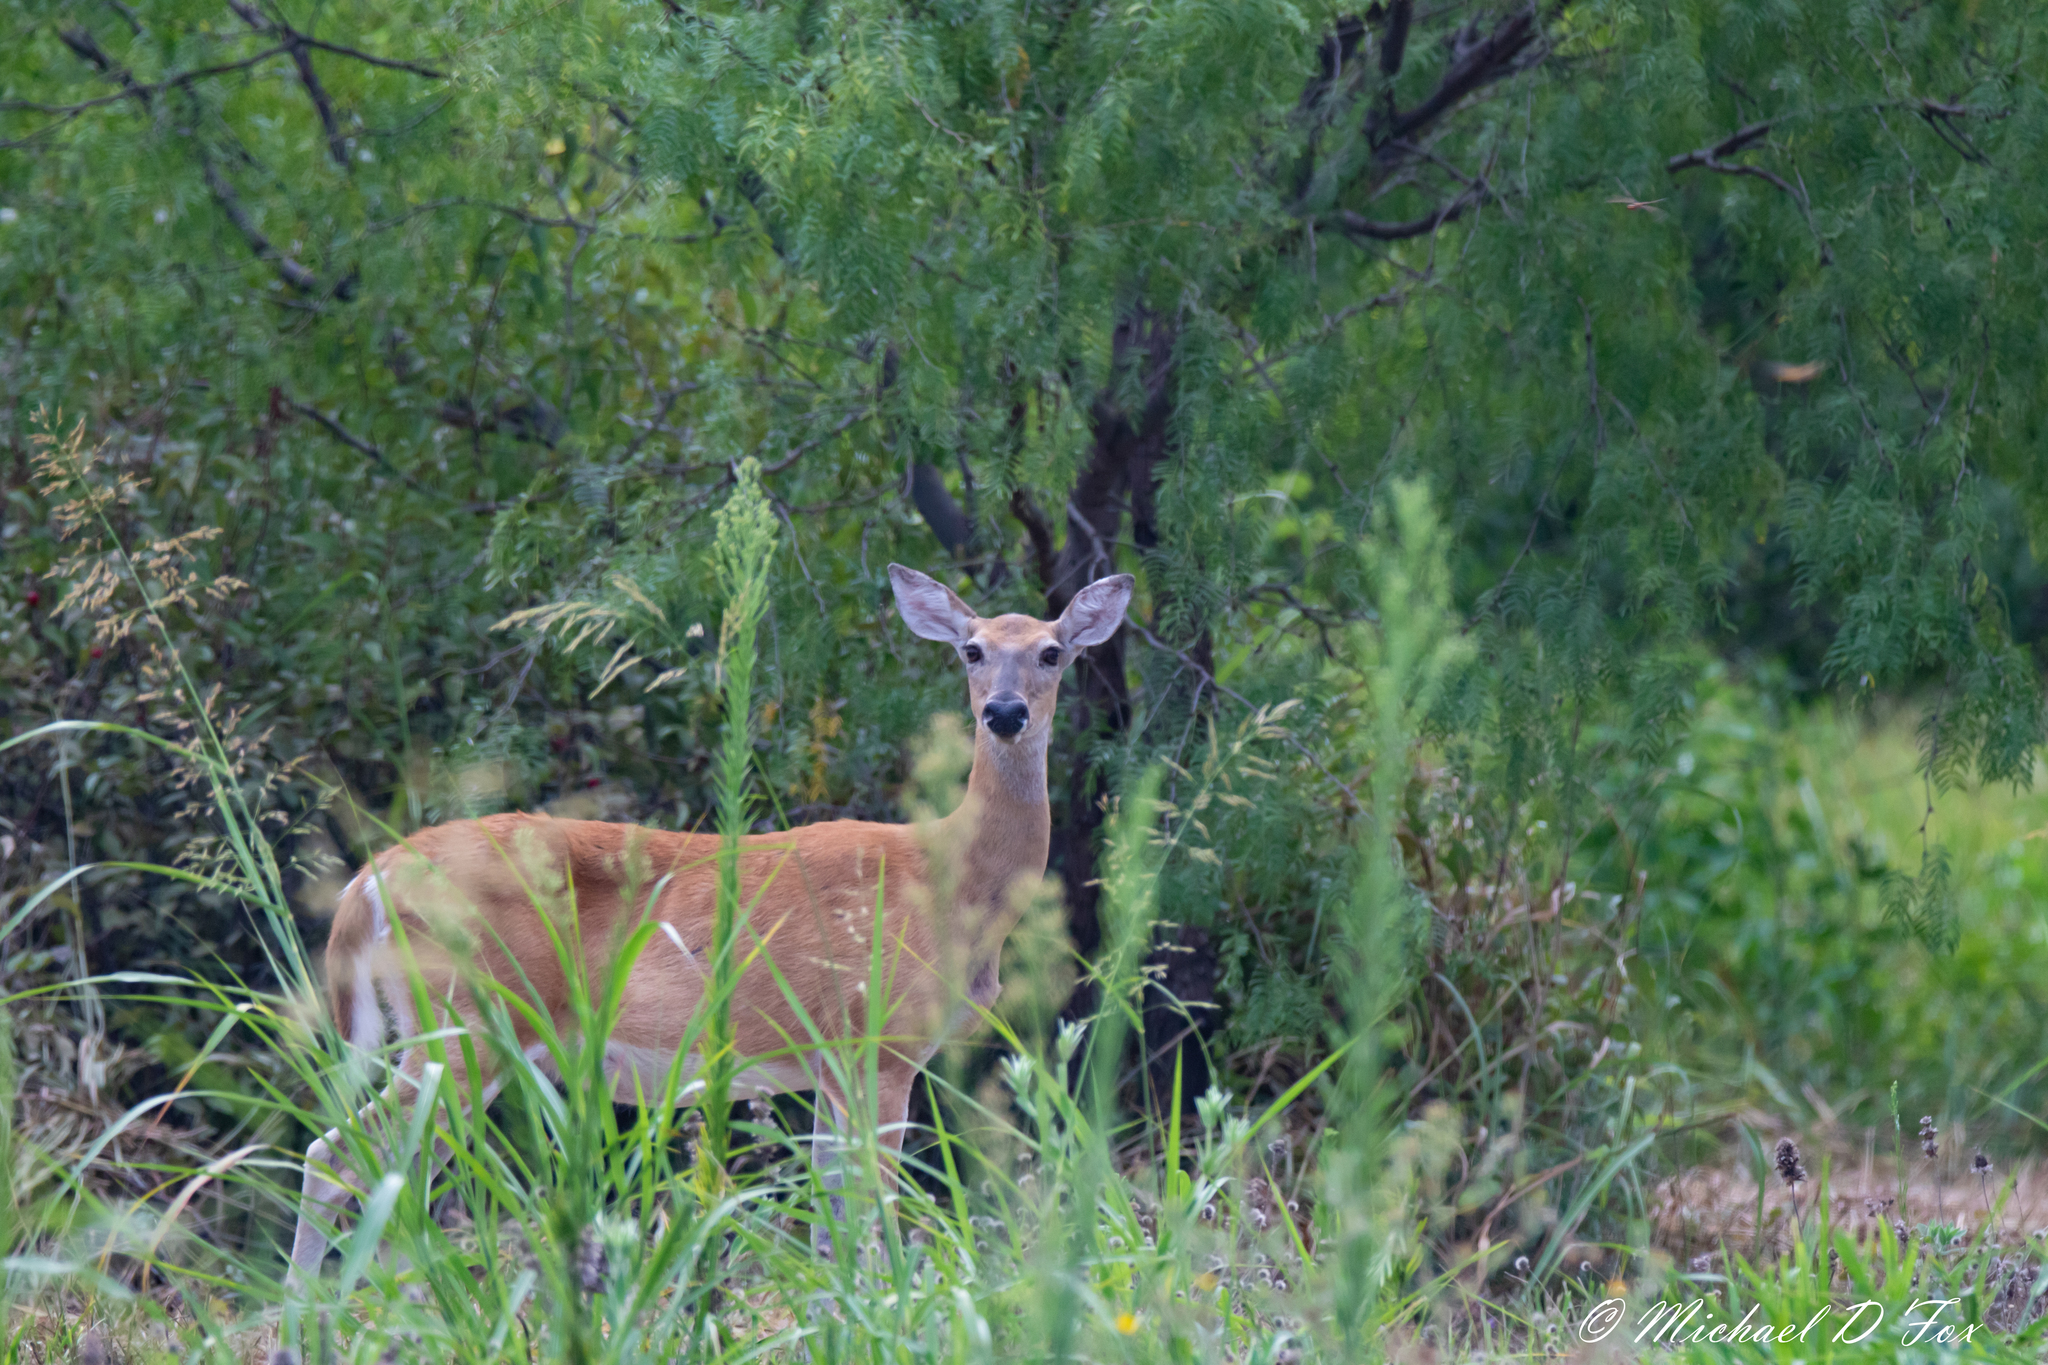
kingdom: Animalia
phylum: Chordata
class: Mammalia
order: Artiodactyla
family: Cervidae
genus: Odocoileus
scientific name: Odocoileus virginianus
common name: White-tailed deer
